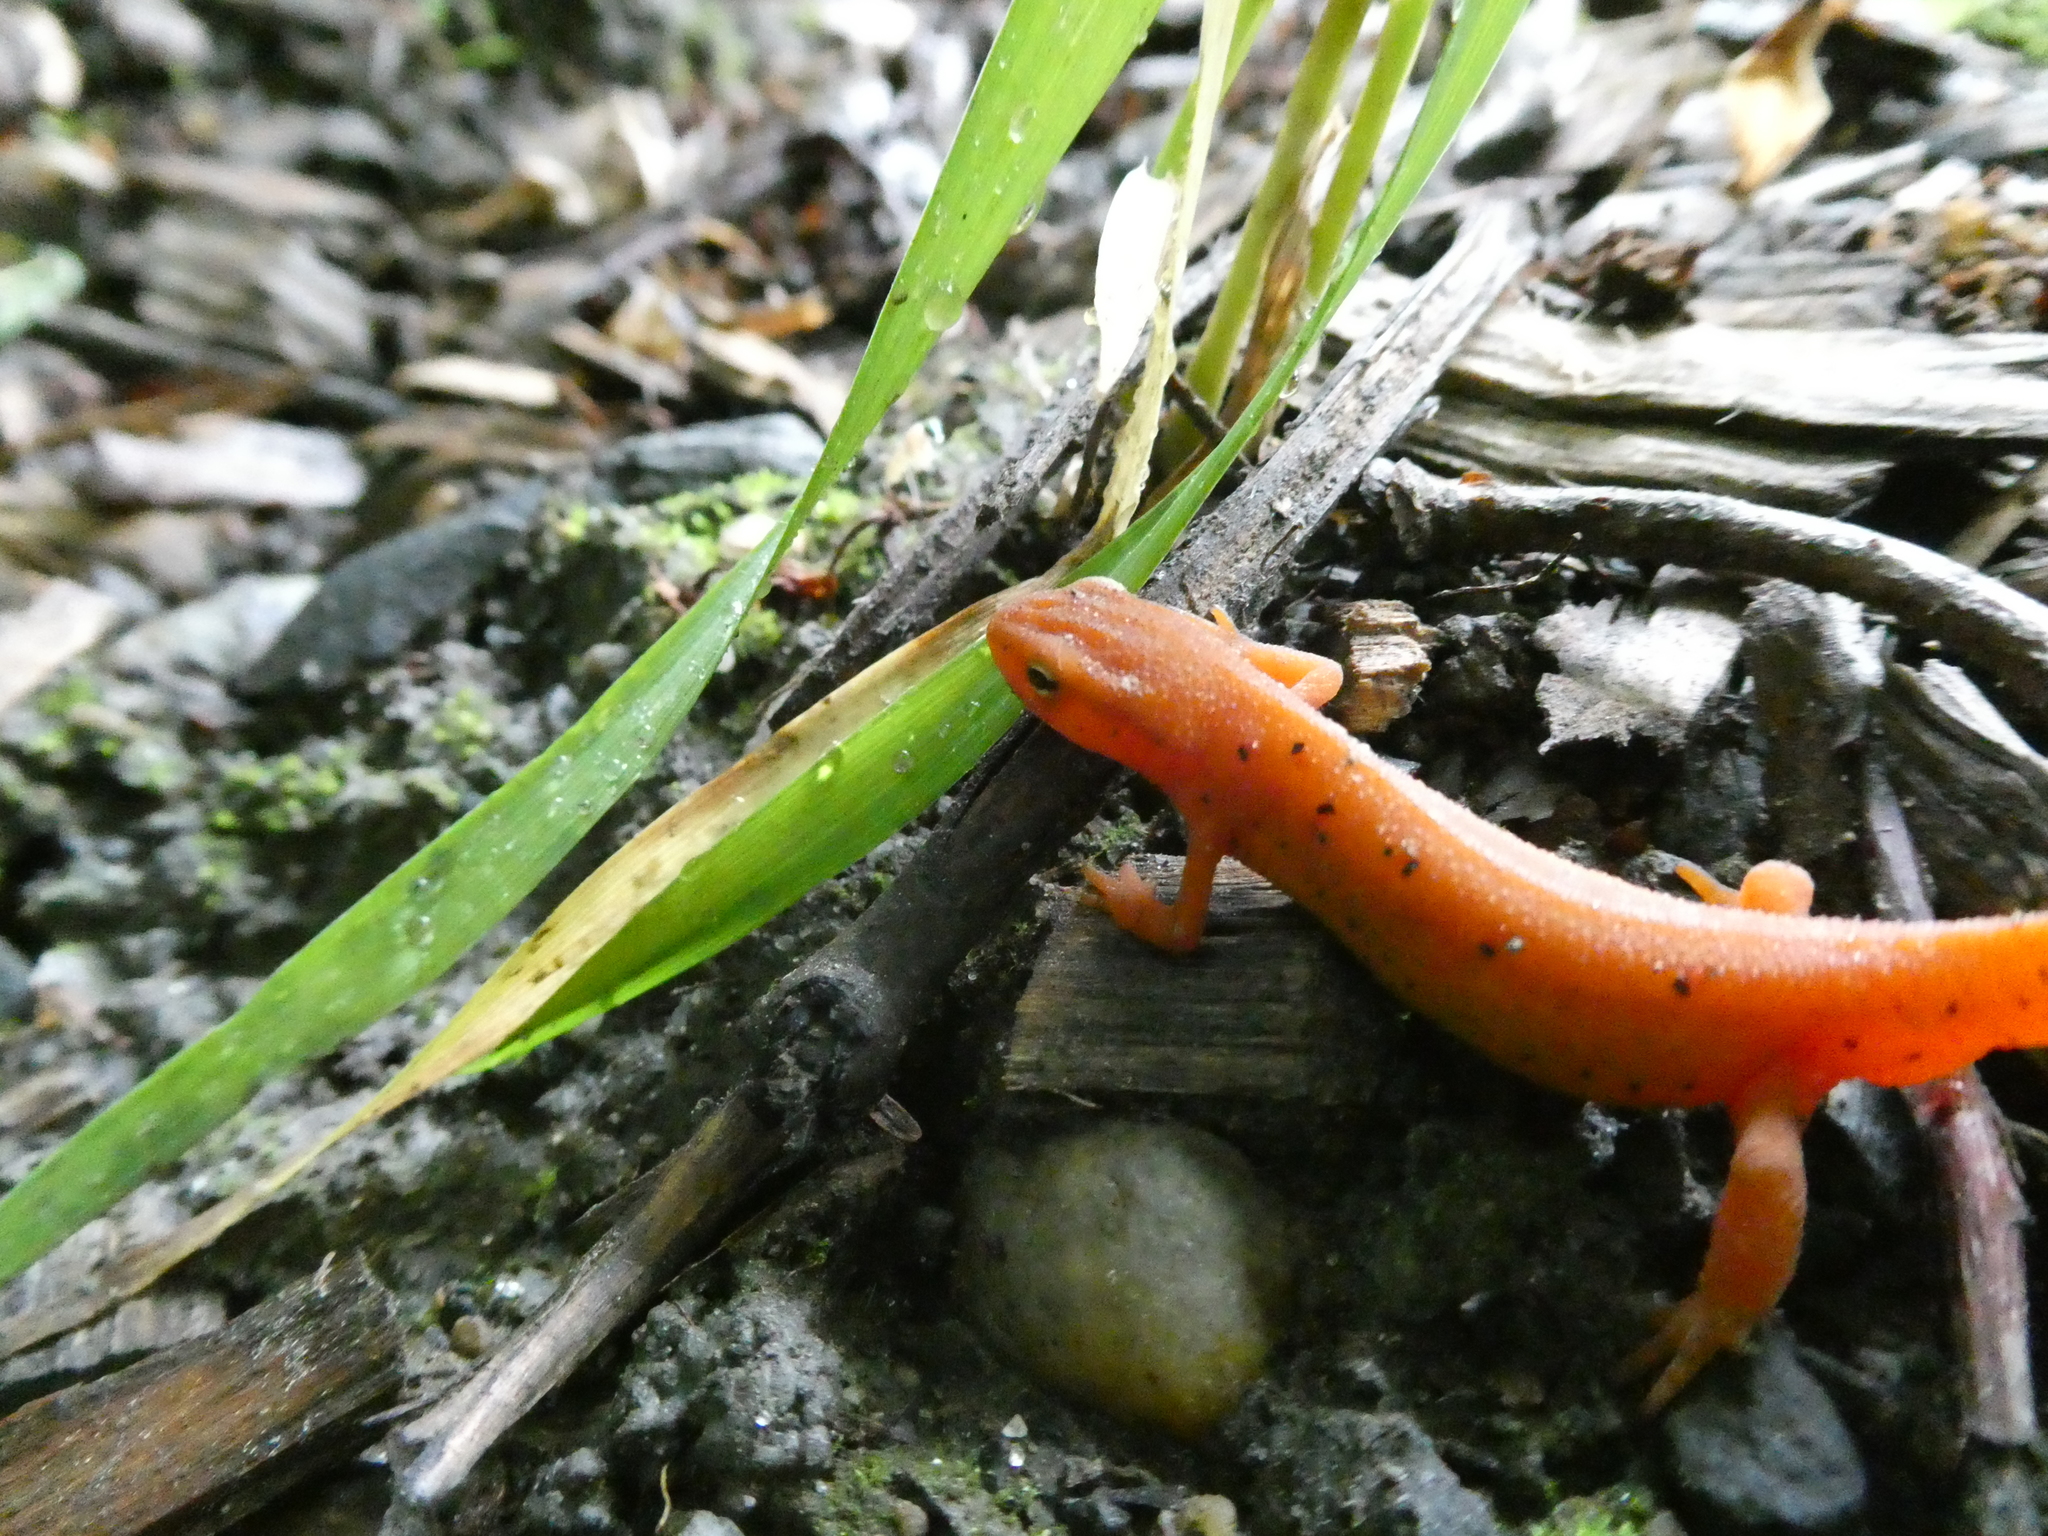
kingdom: Animalia
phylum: Chordata
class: Amphibia
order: Caudata
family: Salamandridae
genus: Notophthalmus
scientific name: Notophthalmus viridescens
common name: Eastern newt
